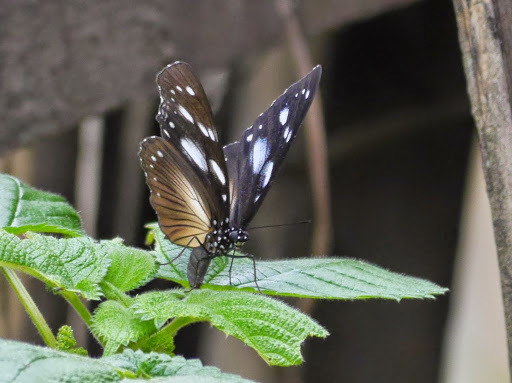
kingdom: Animalia
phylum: Arthropoda
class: Insecta
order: Lepidoptera
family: Nymphalidae
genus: Hypolimnas
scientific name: Hypolimnas dubius
